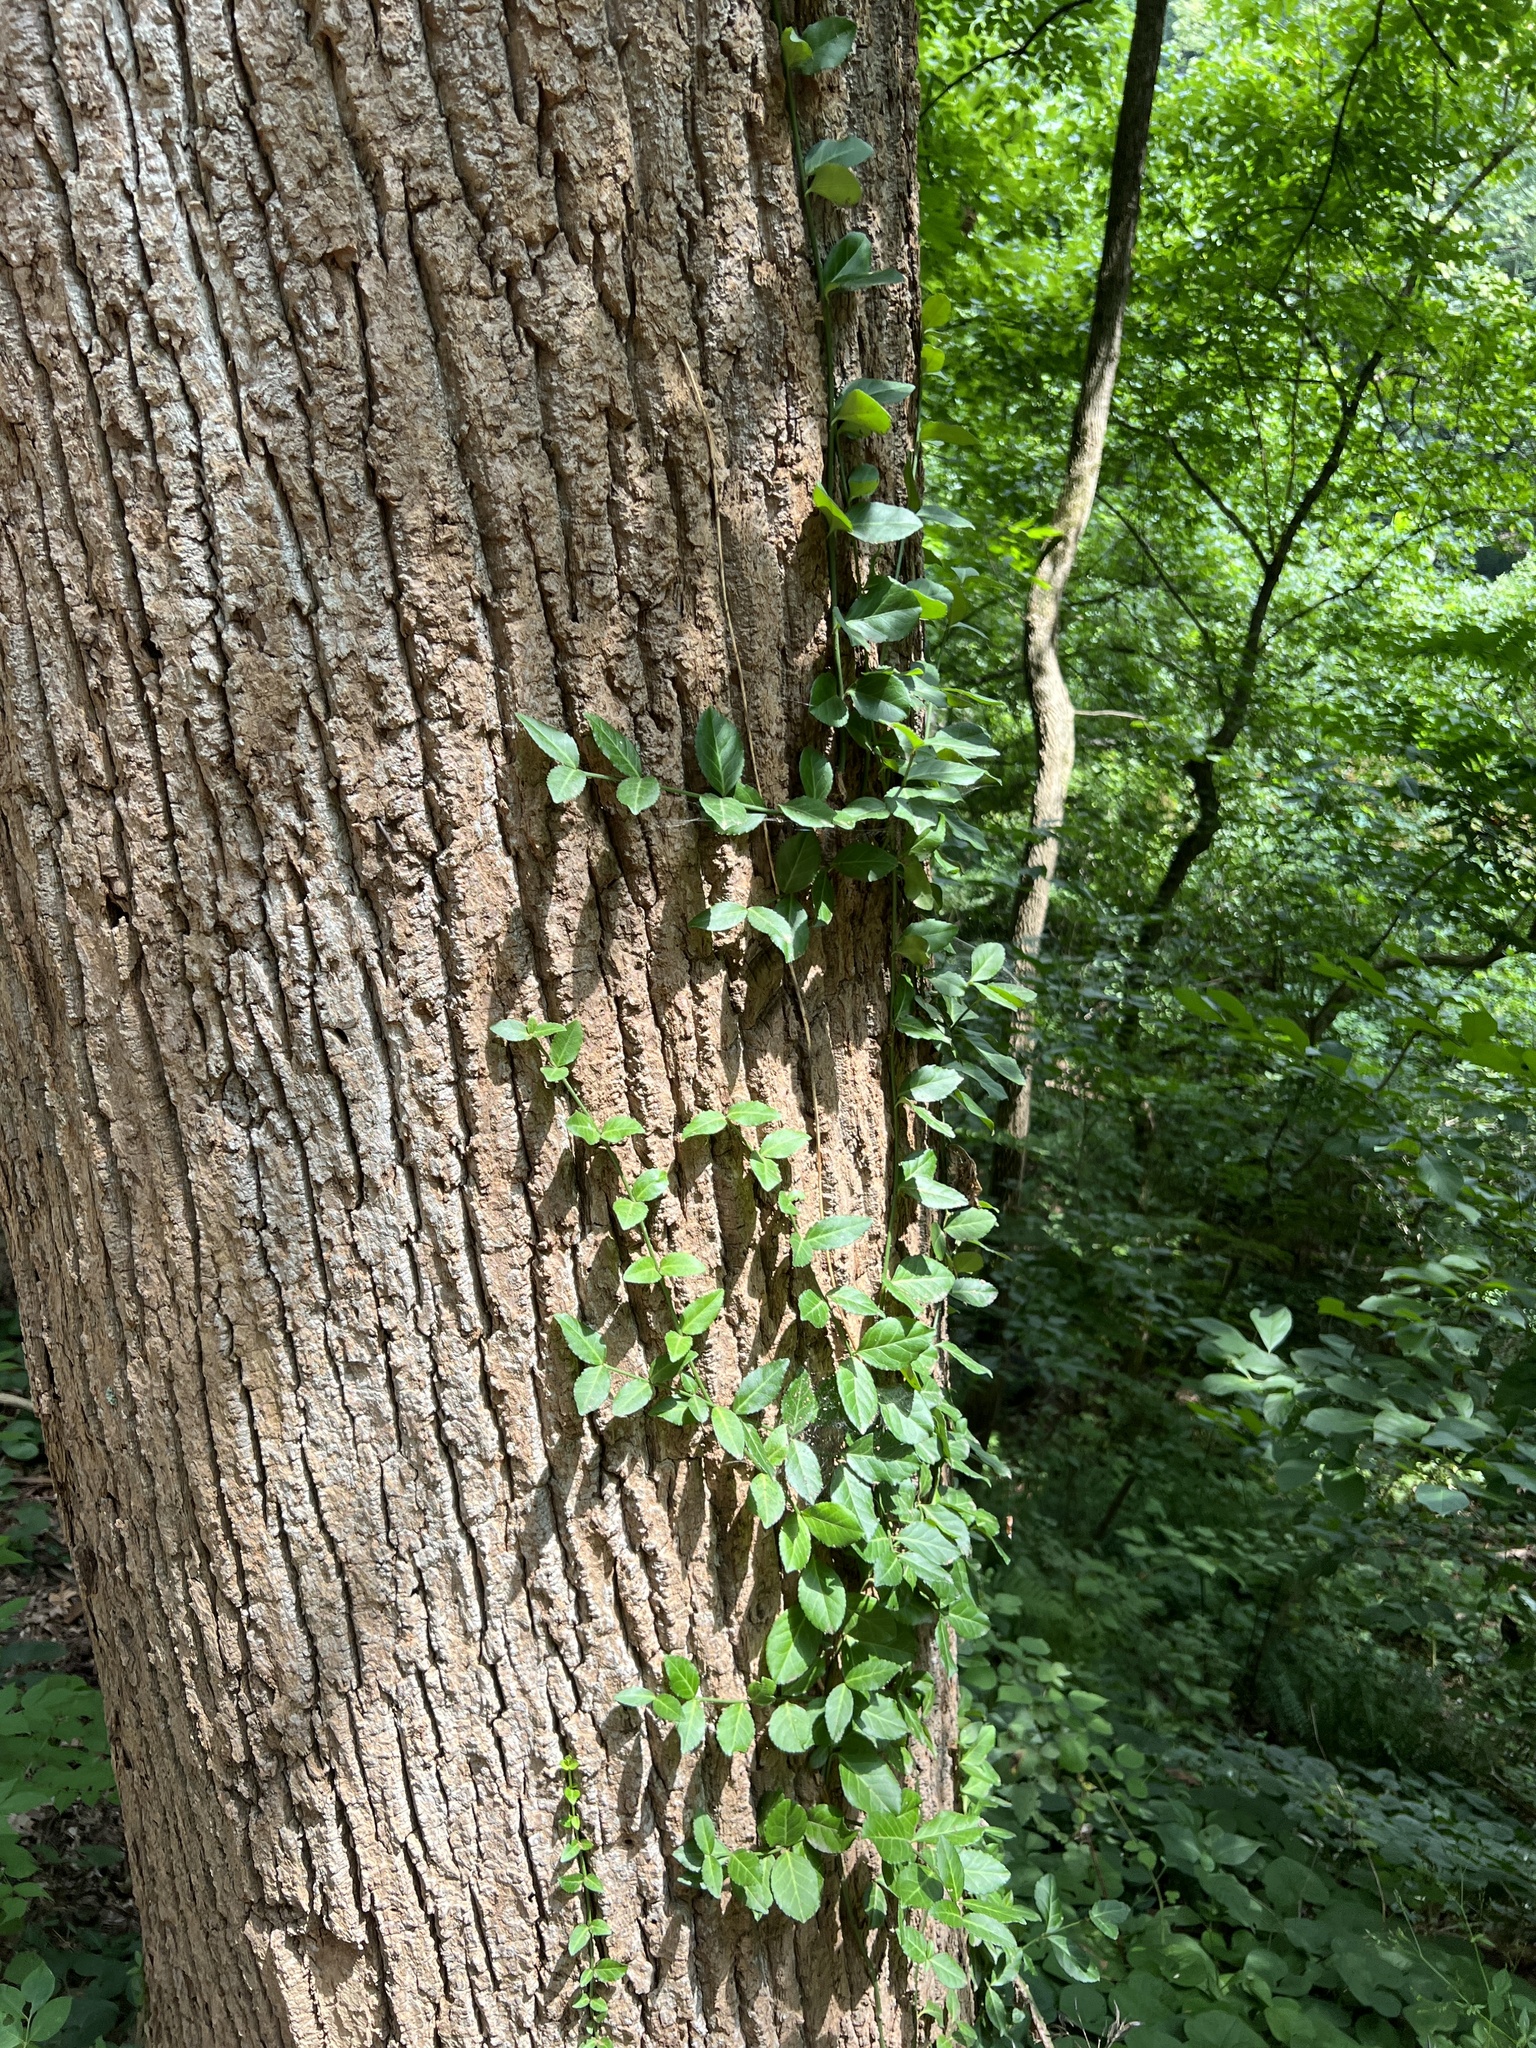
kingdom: Plantae
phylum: Tracheophyta
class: Magnoliopsida
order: Celastrales
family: Celastraceae
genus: Euonymus
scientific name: Euonymus fortunei
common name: Climbing euonymus
